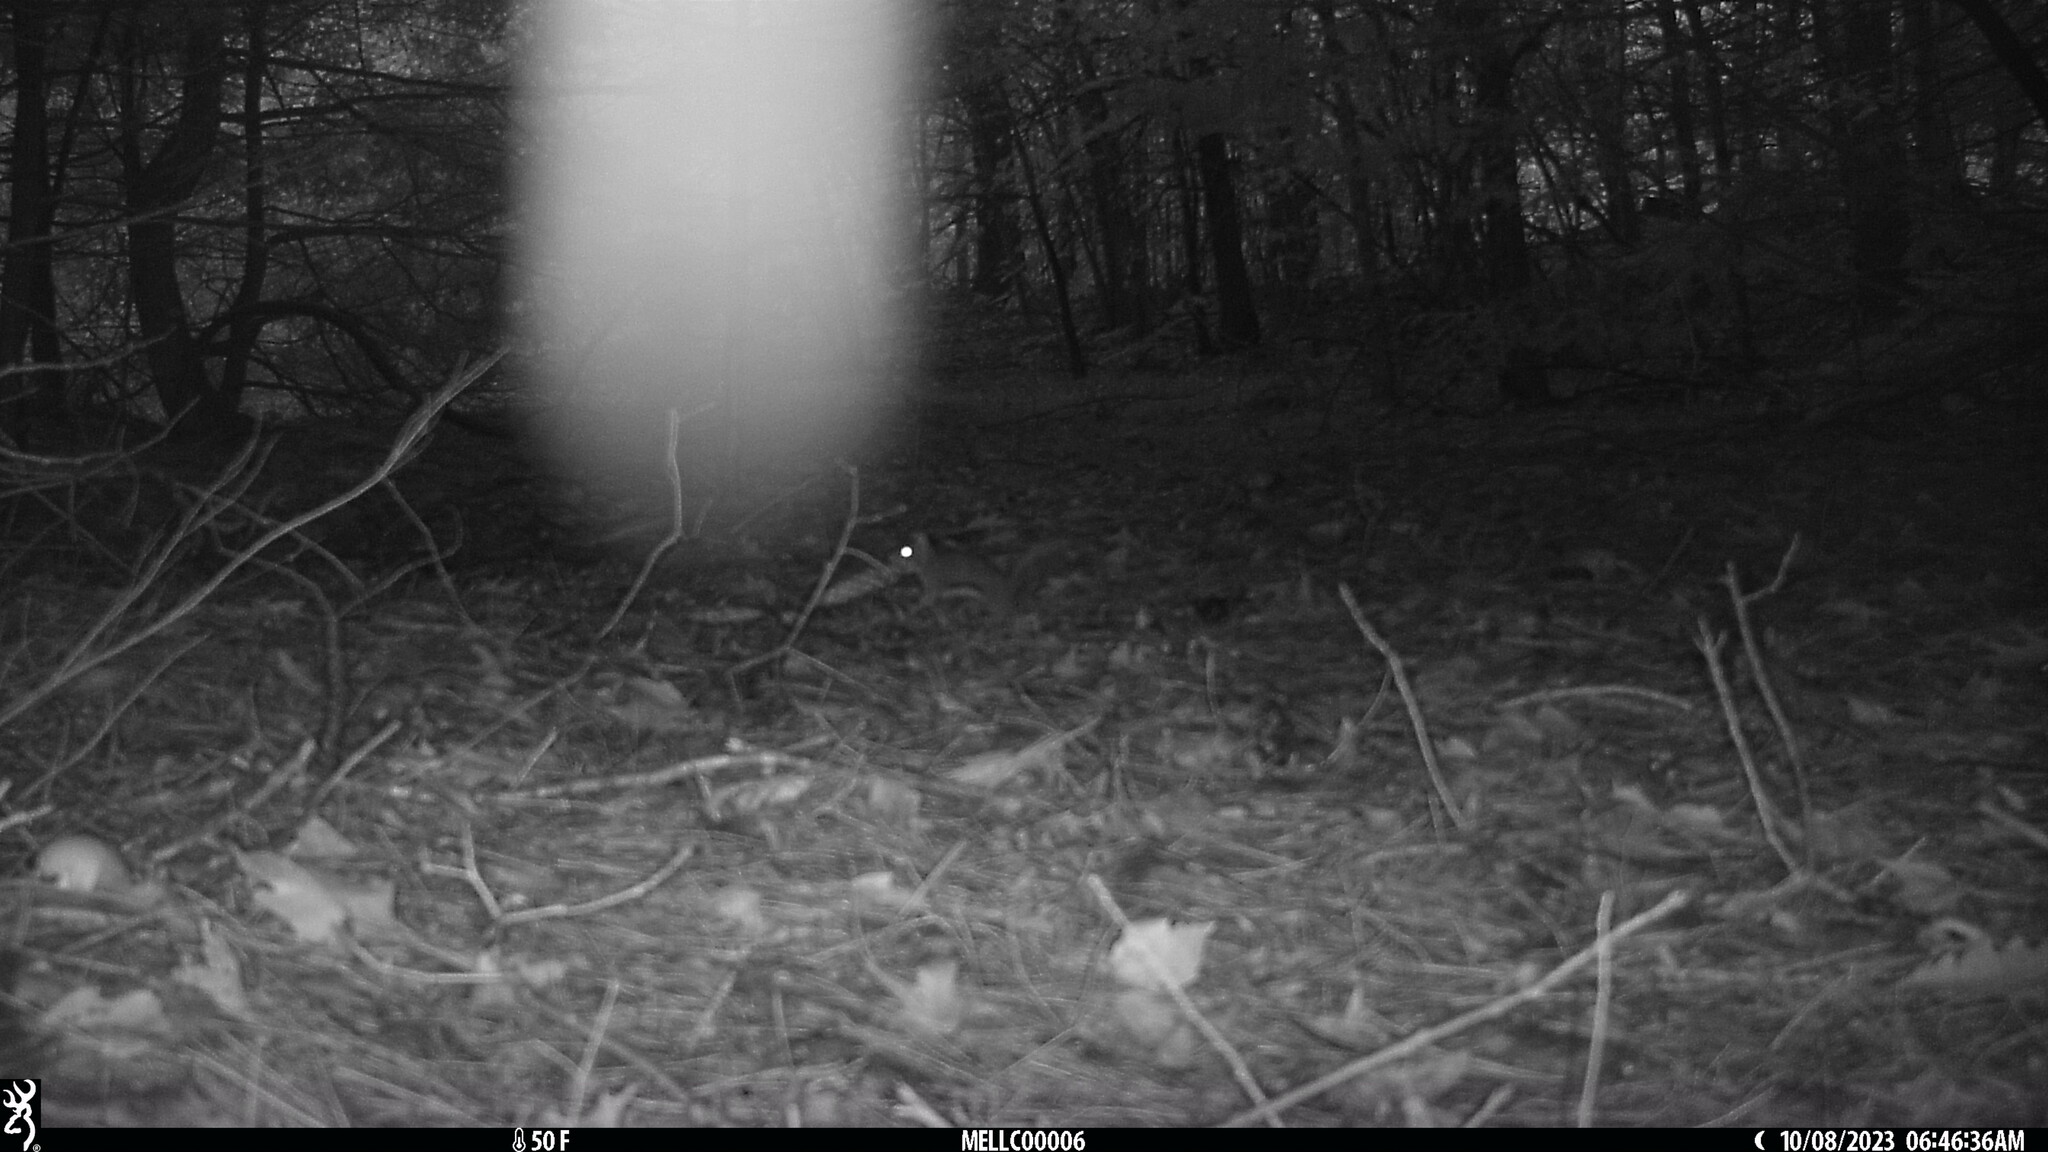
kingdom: Animalia
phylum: Chordata
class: Mammalia
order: Rodentia
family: Sciuridae
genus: Tamiasciurus
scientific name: Tamiasciurus hudsonicus
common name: Red squirrel
